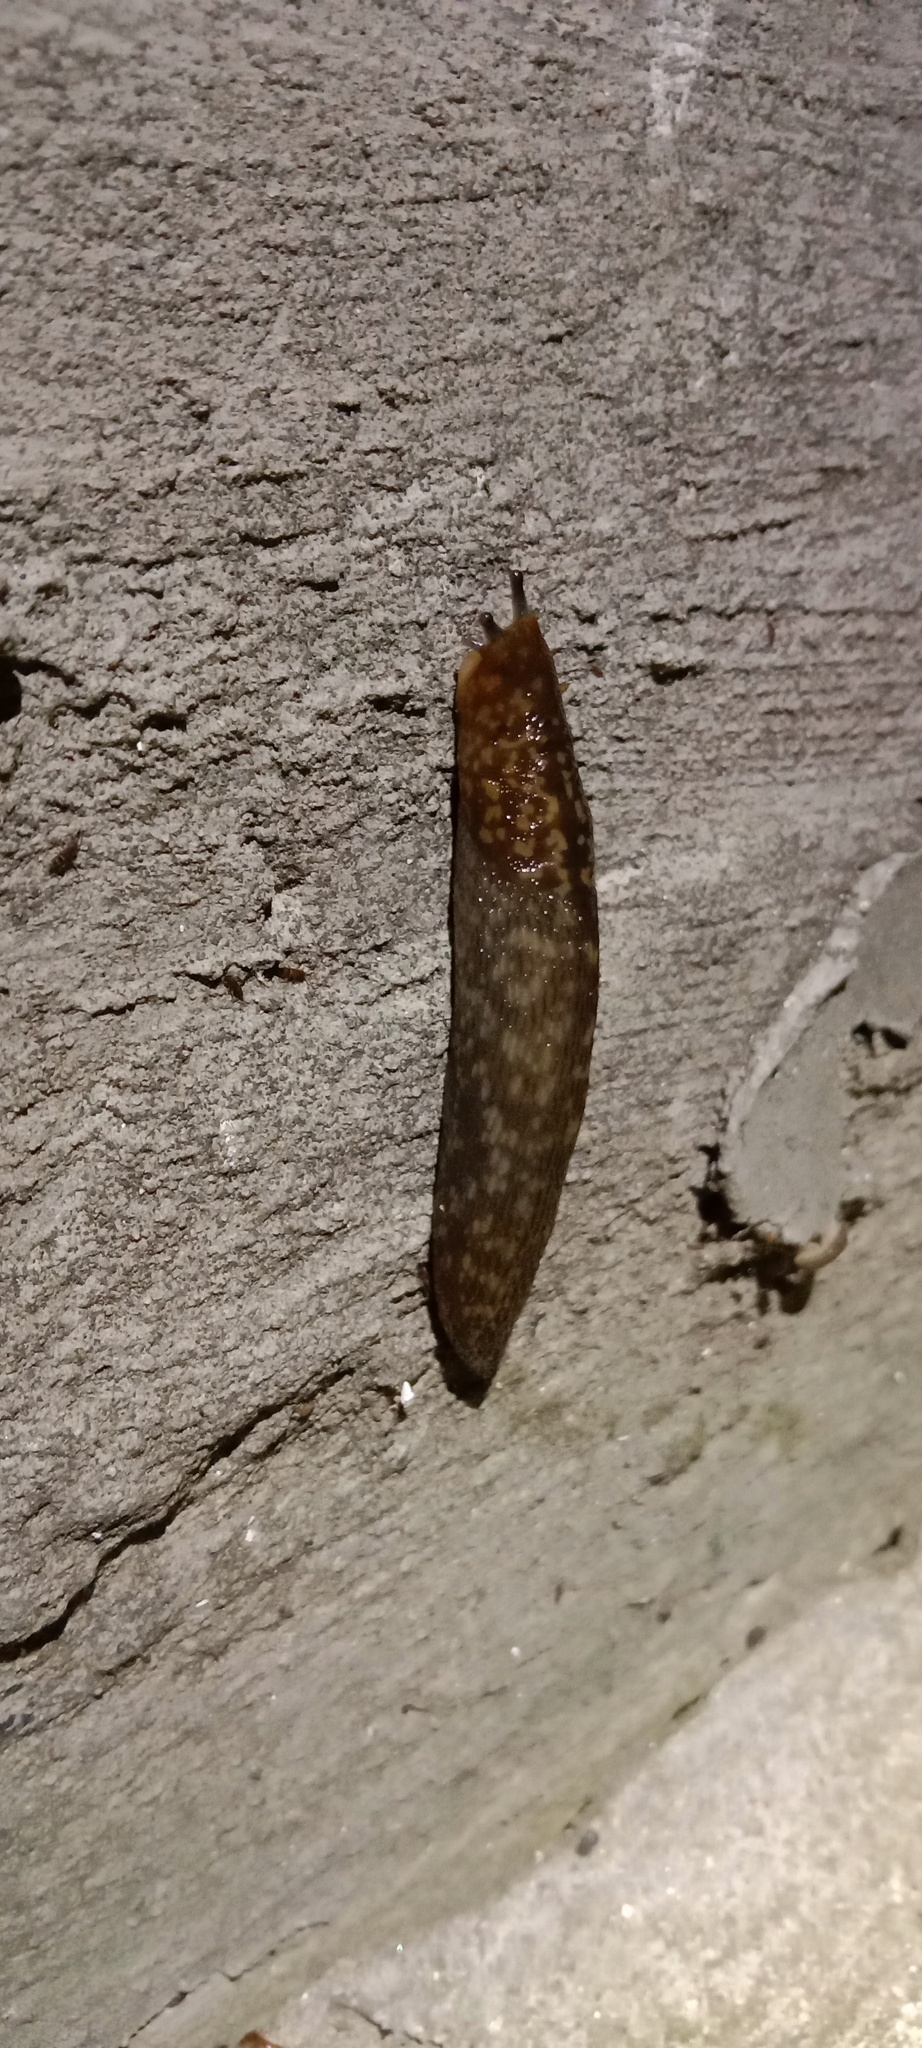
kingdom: Animalia
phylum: Mollusca
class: Gastropoda
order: Stylommatophora
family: Limacidae
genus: Limacus
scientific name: Limacus
